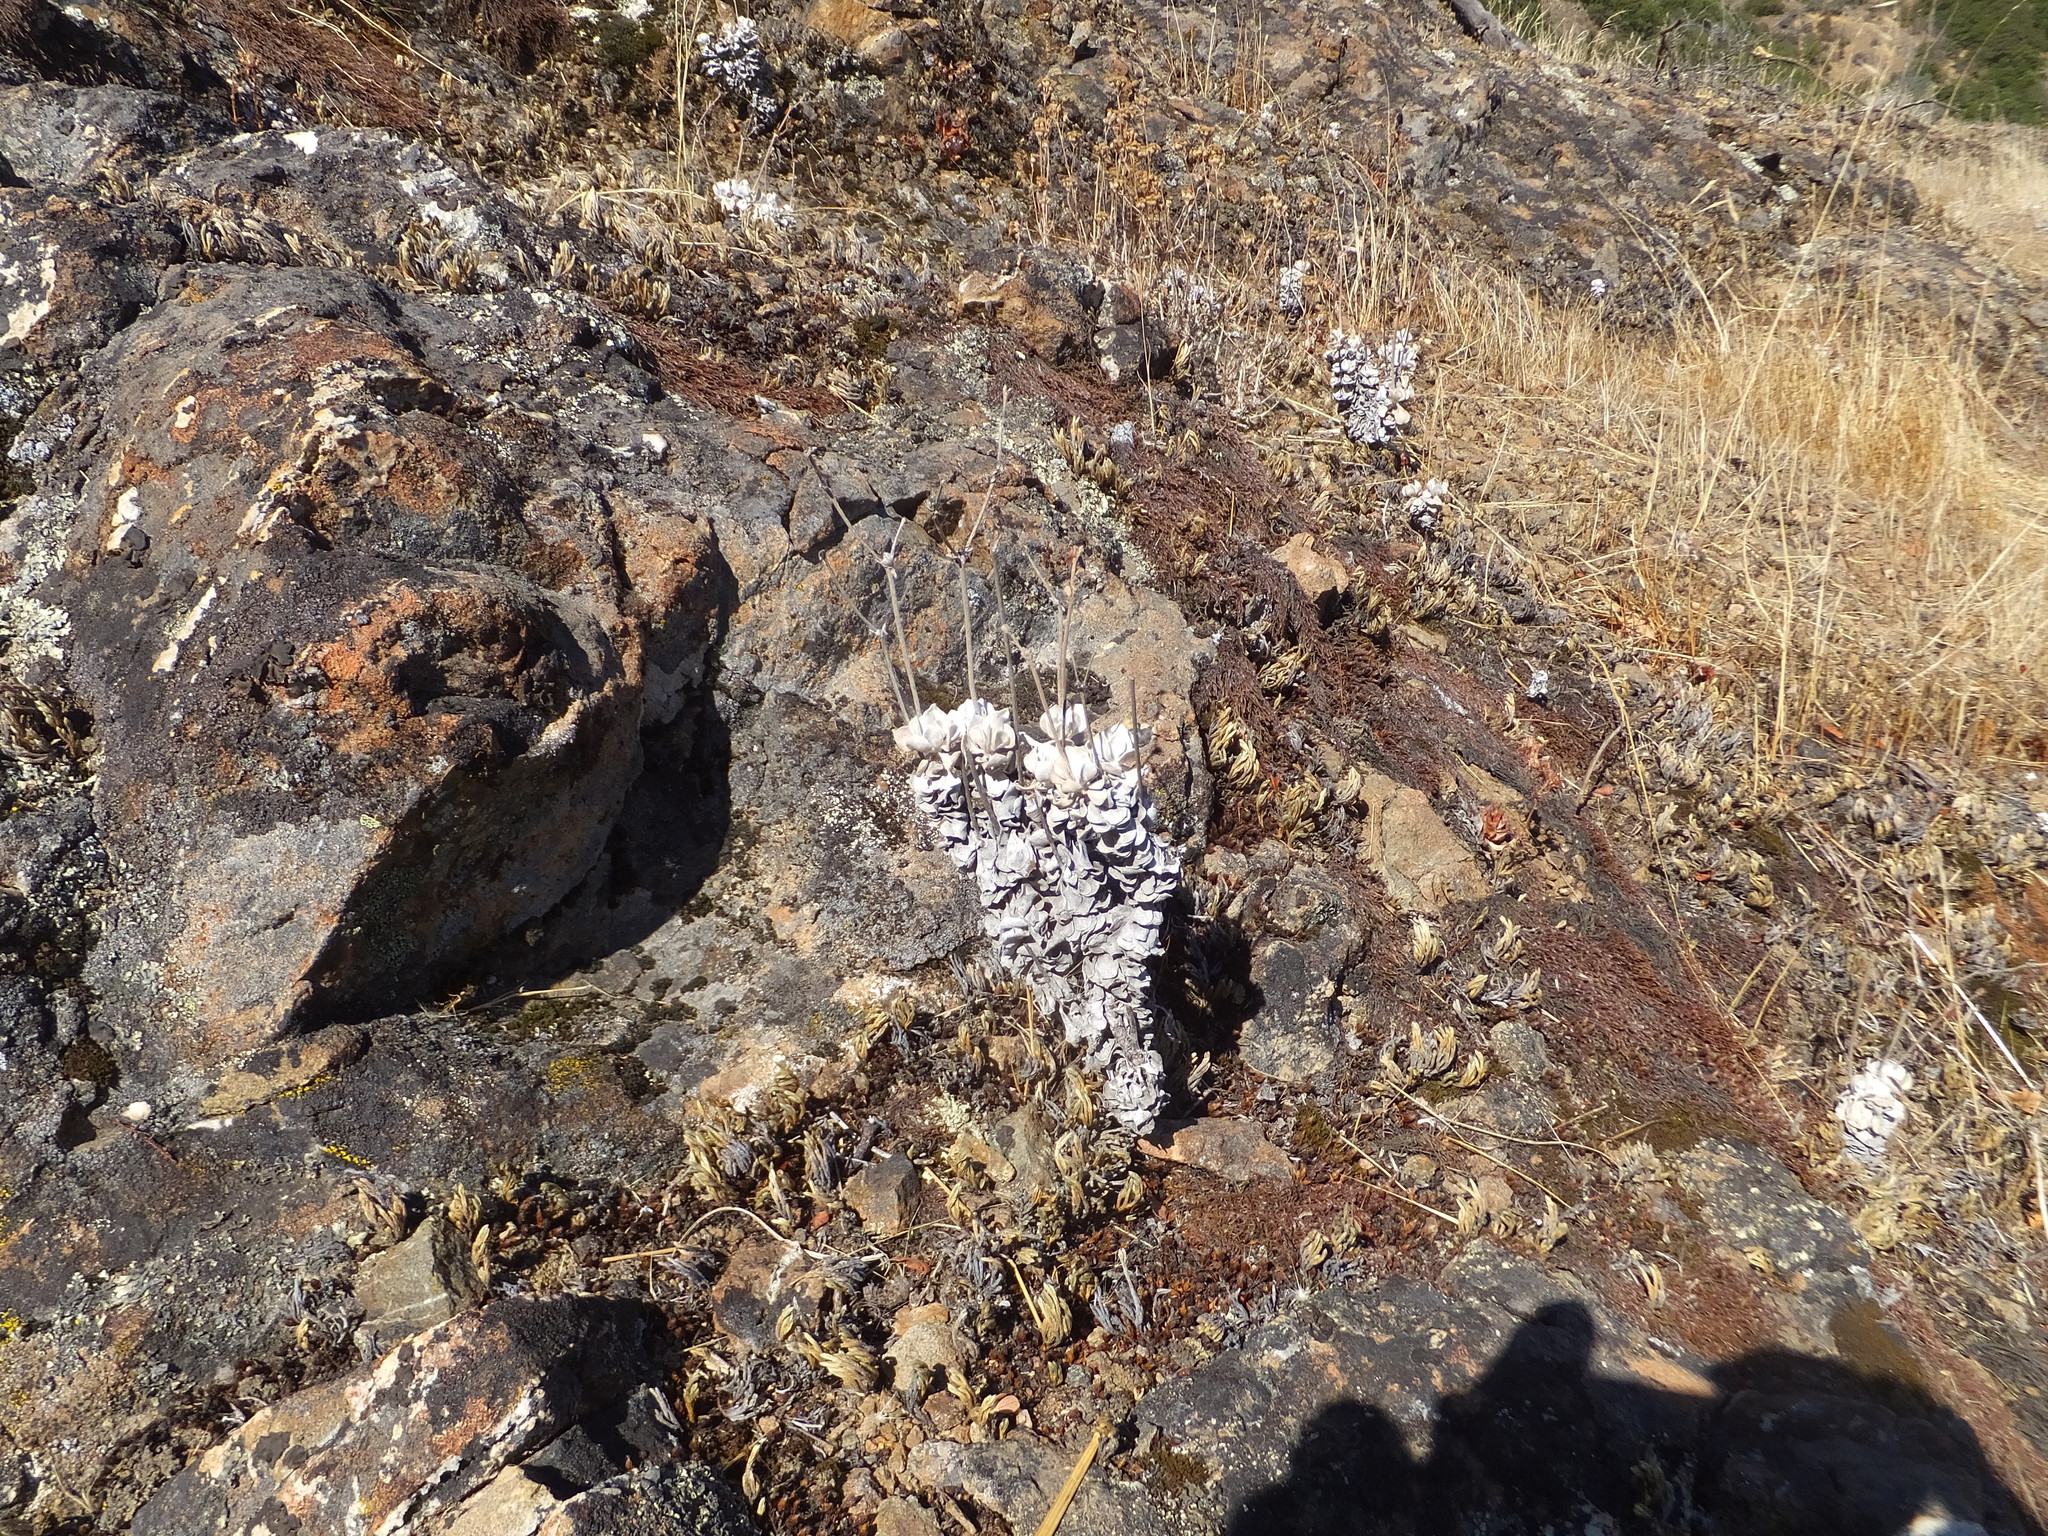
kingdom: Plantae
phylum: Tracheophyta
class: Magnoliopsida
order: Caryophyllales
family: Polygonaceae
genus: Eriogonum
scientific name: Eriogonum saxatile
